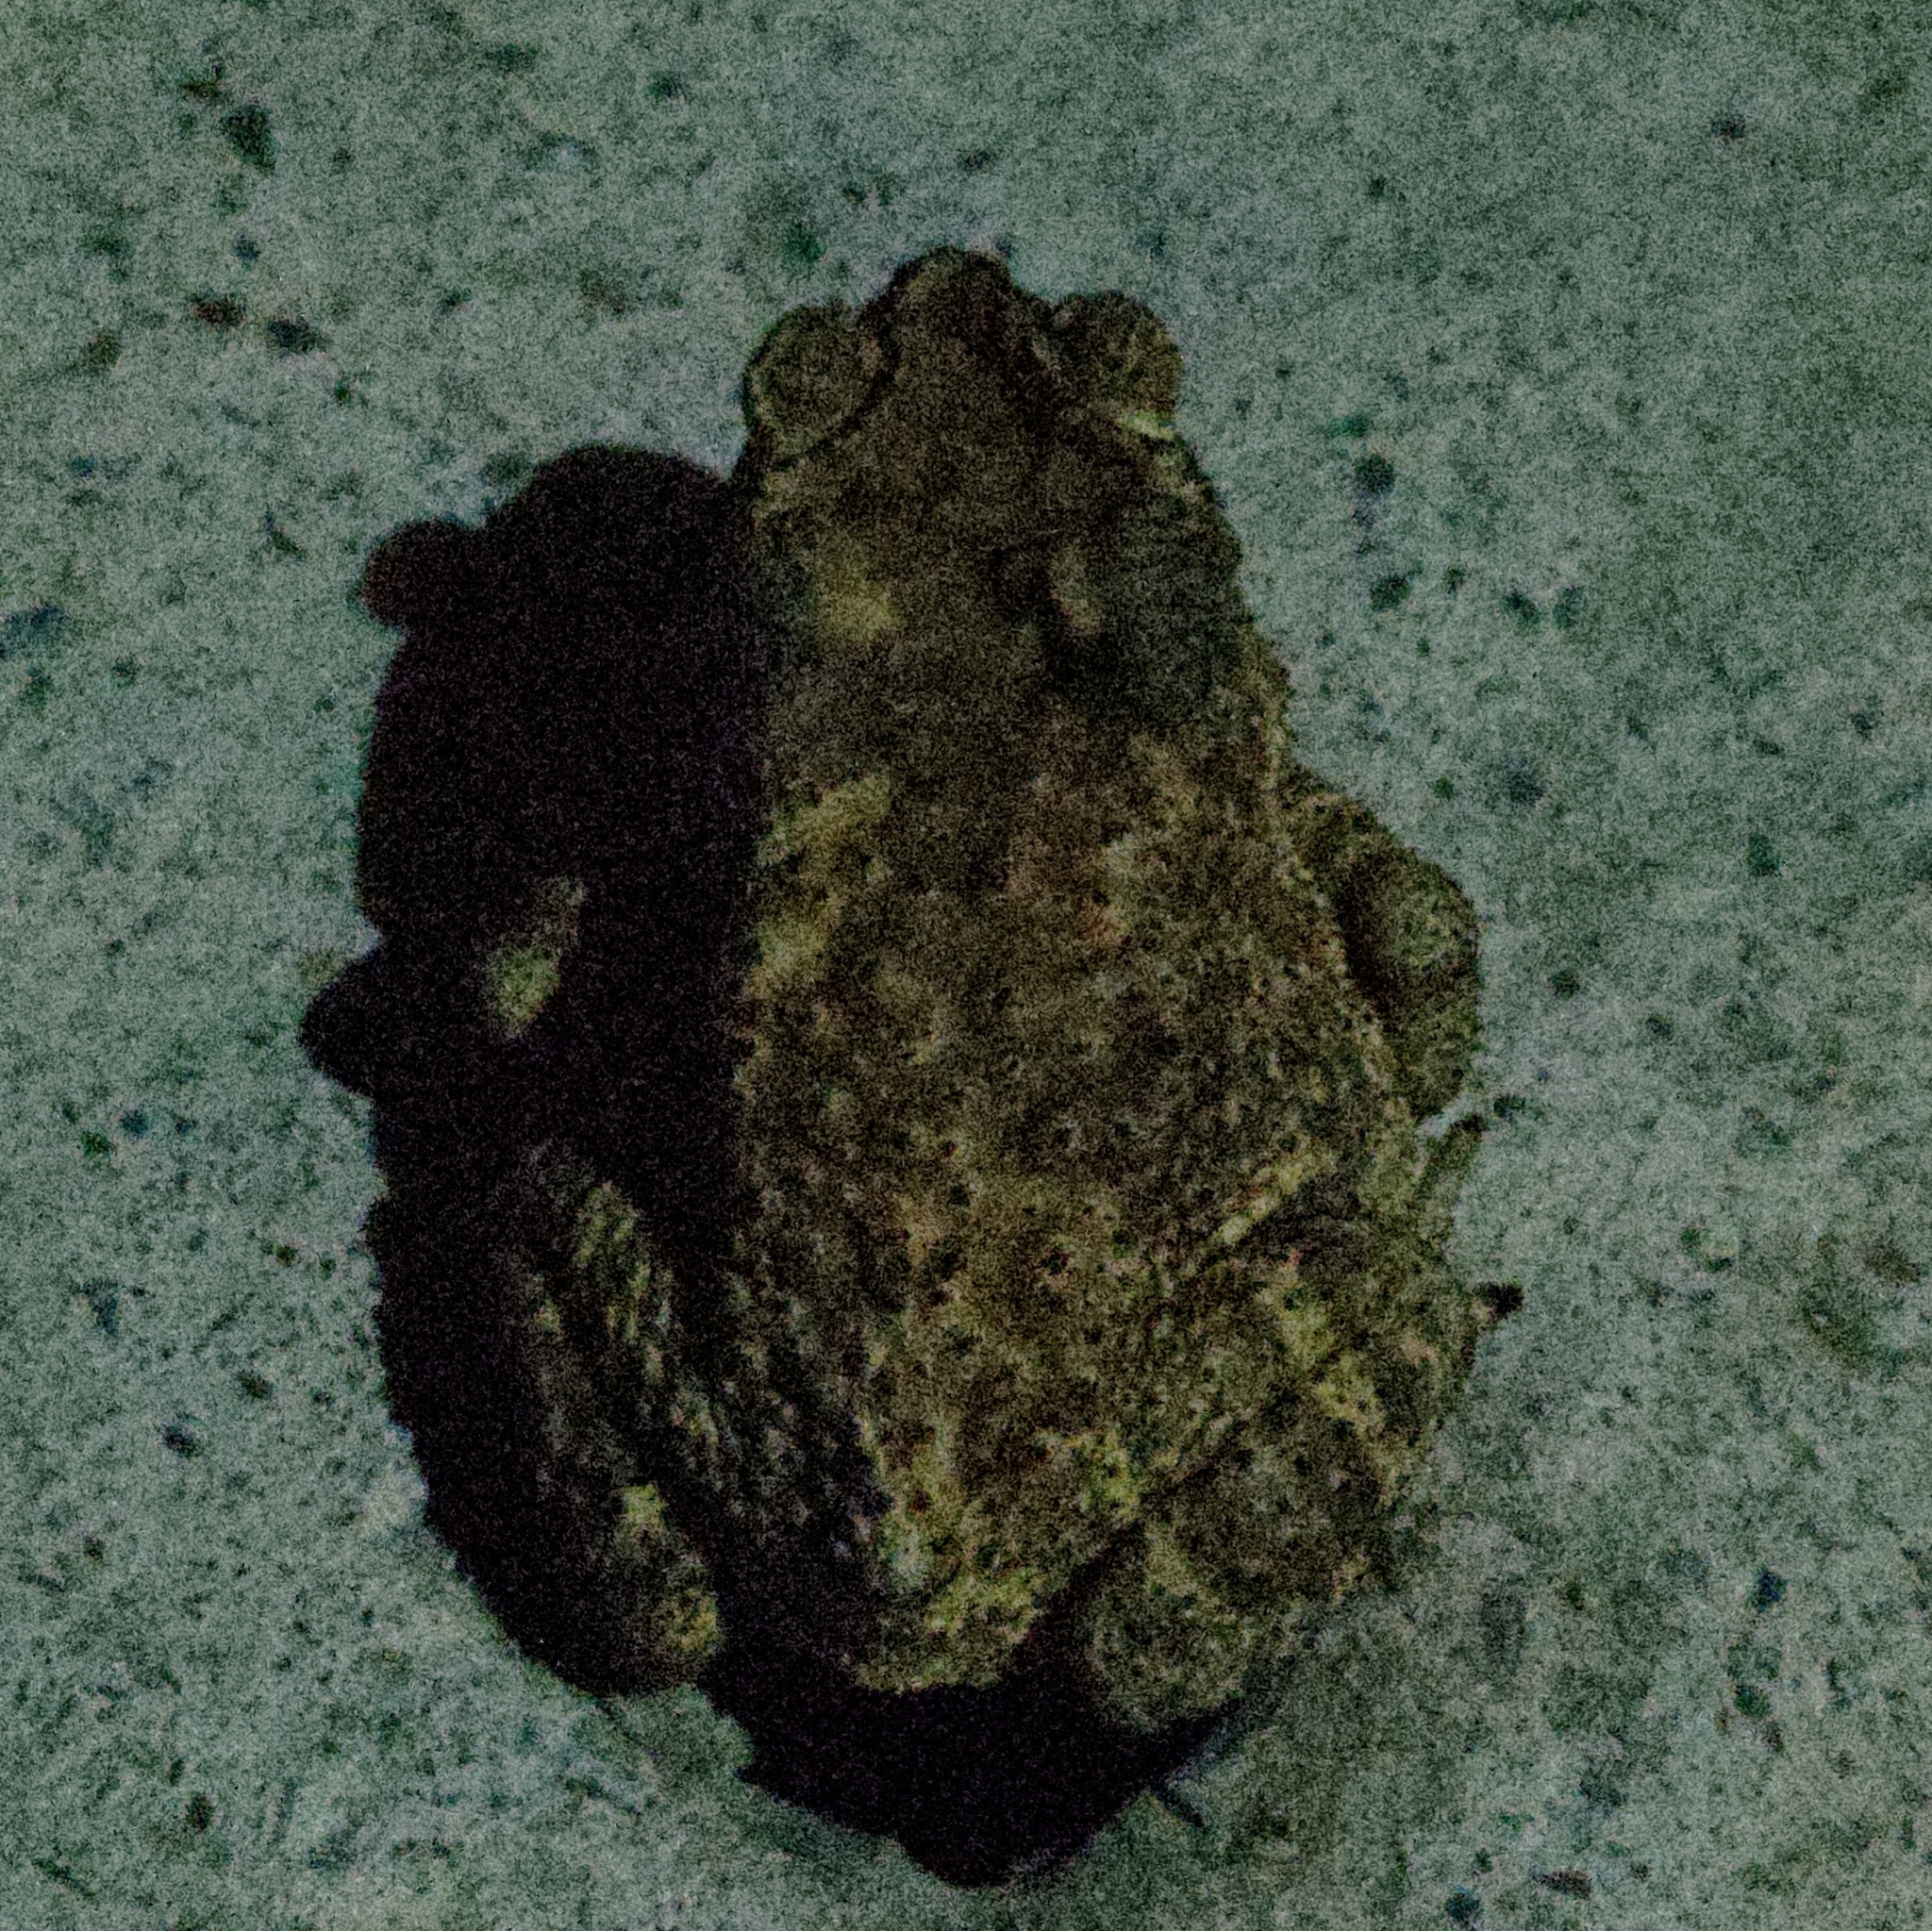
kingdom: Animalia
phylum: Chordata
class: Amphibia
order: Anura
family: Bufonidae
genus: Duttaphrynus
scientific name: Duttaphrynus melanostictus
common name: Common sunda toad
